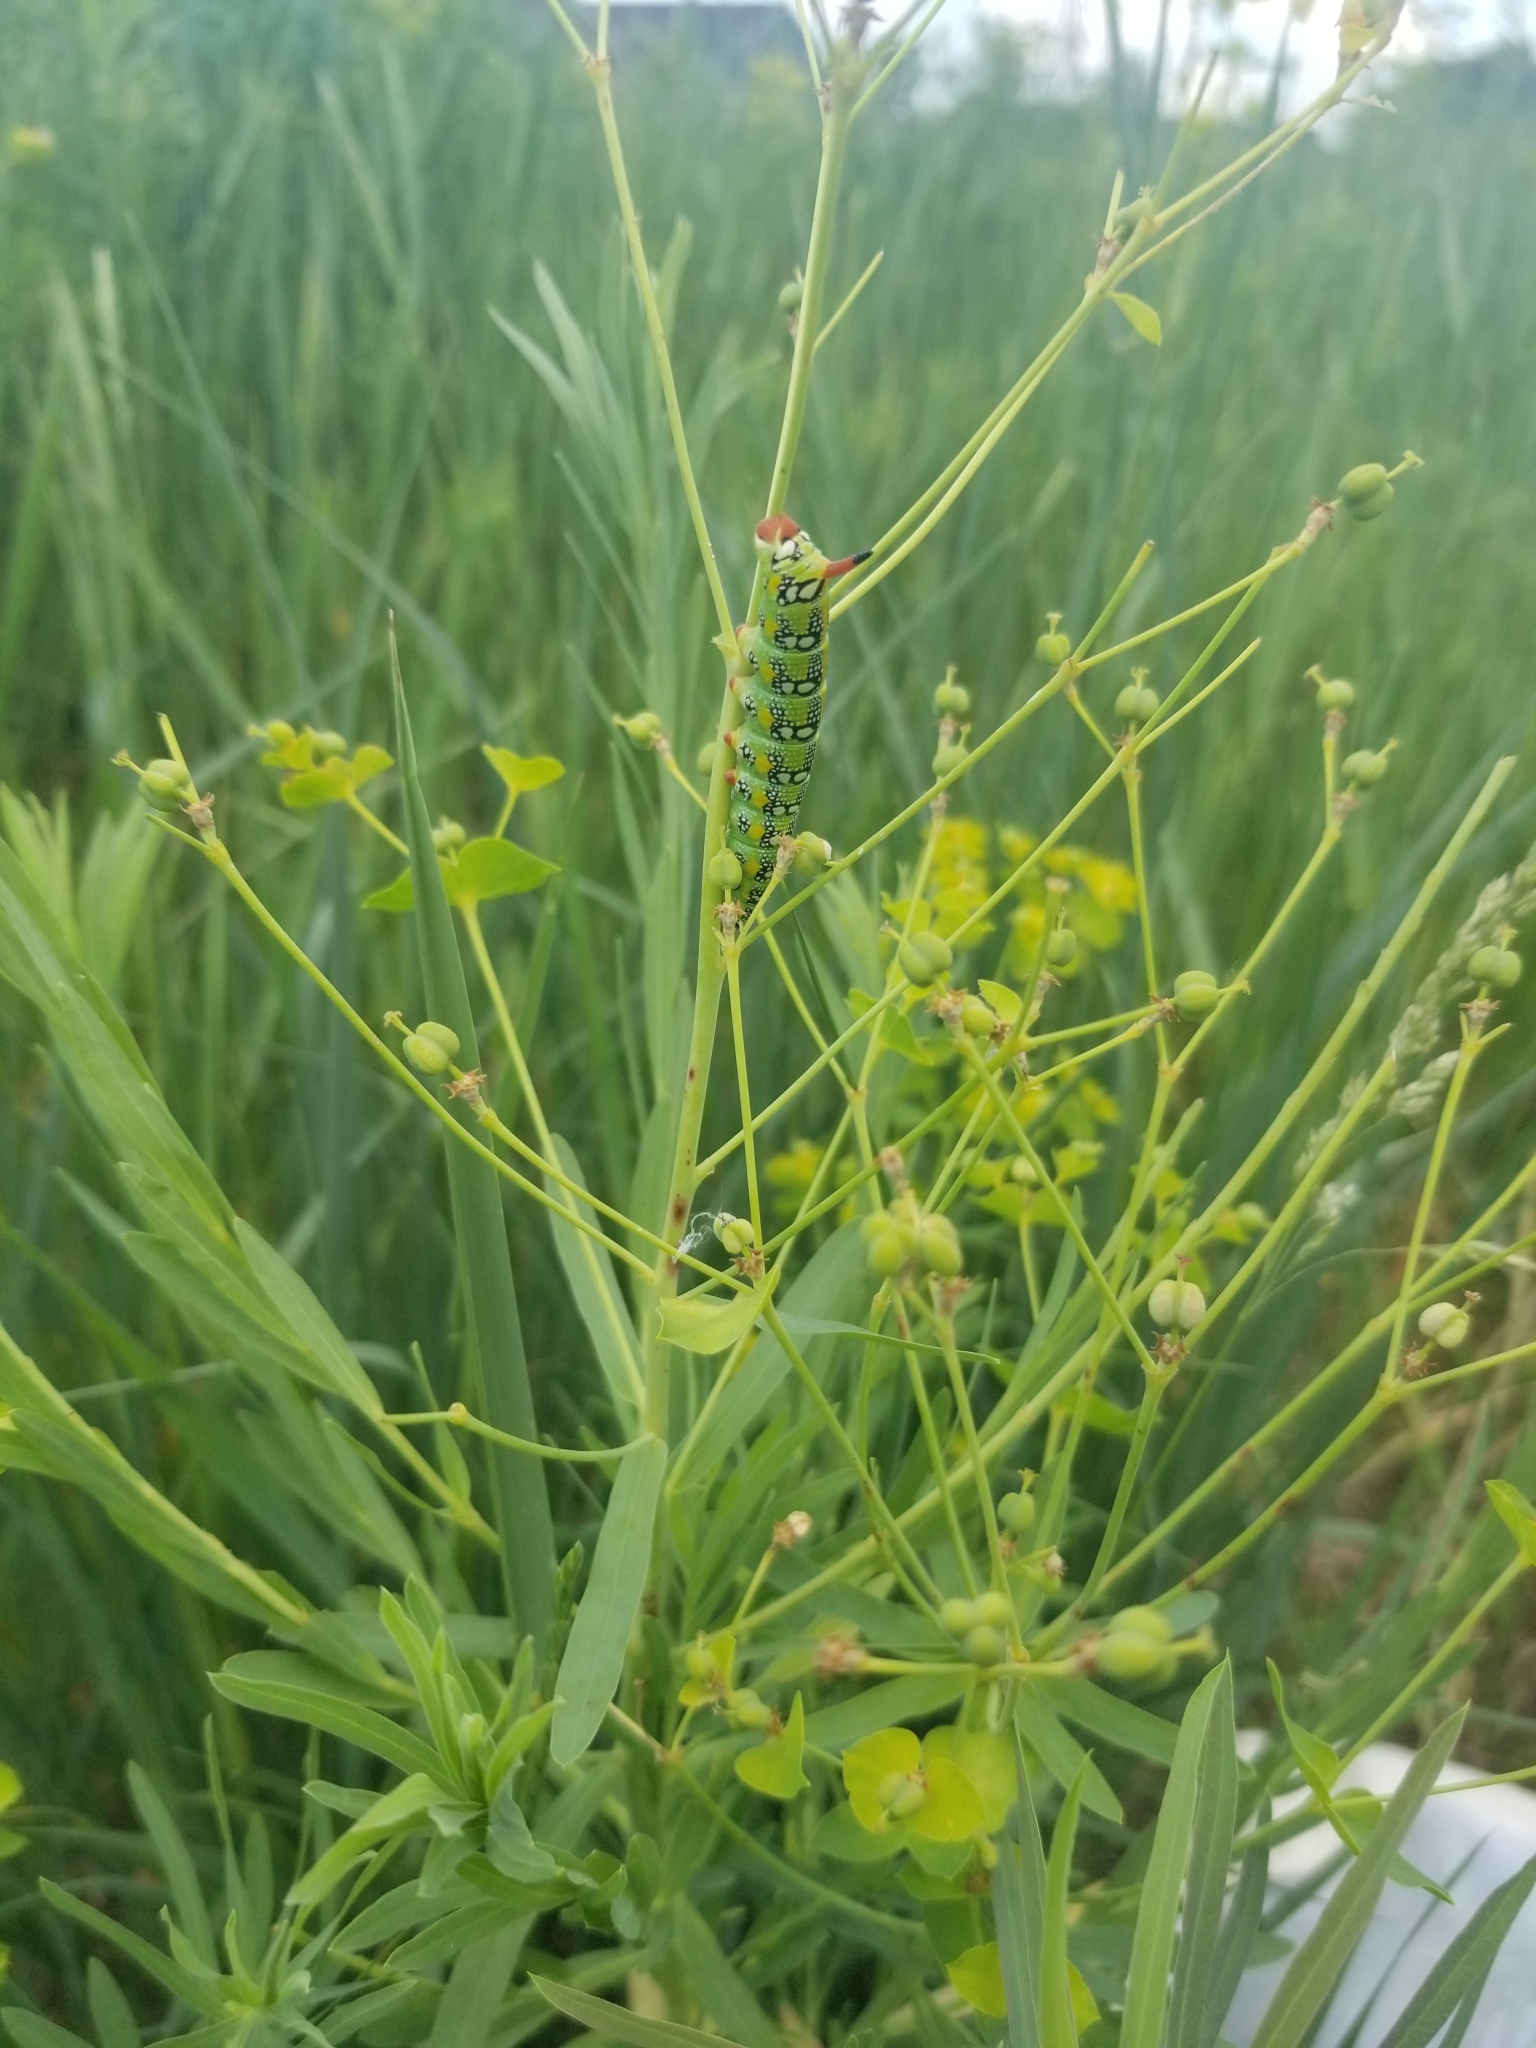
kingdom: Animalia
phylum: Arthropoda
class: Insecta
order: Lepidoptera
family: Sphingidae
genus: Hyles
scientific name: Hyles euphorbiae
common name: Spurge hawk-moth
